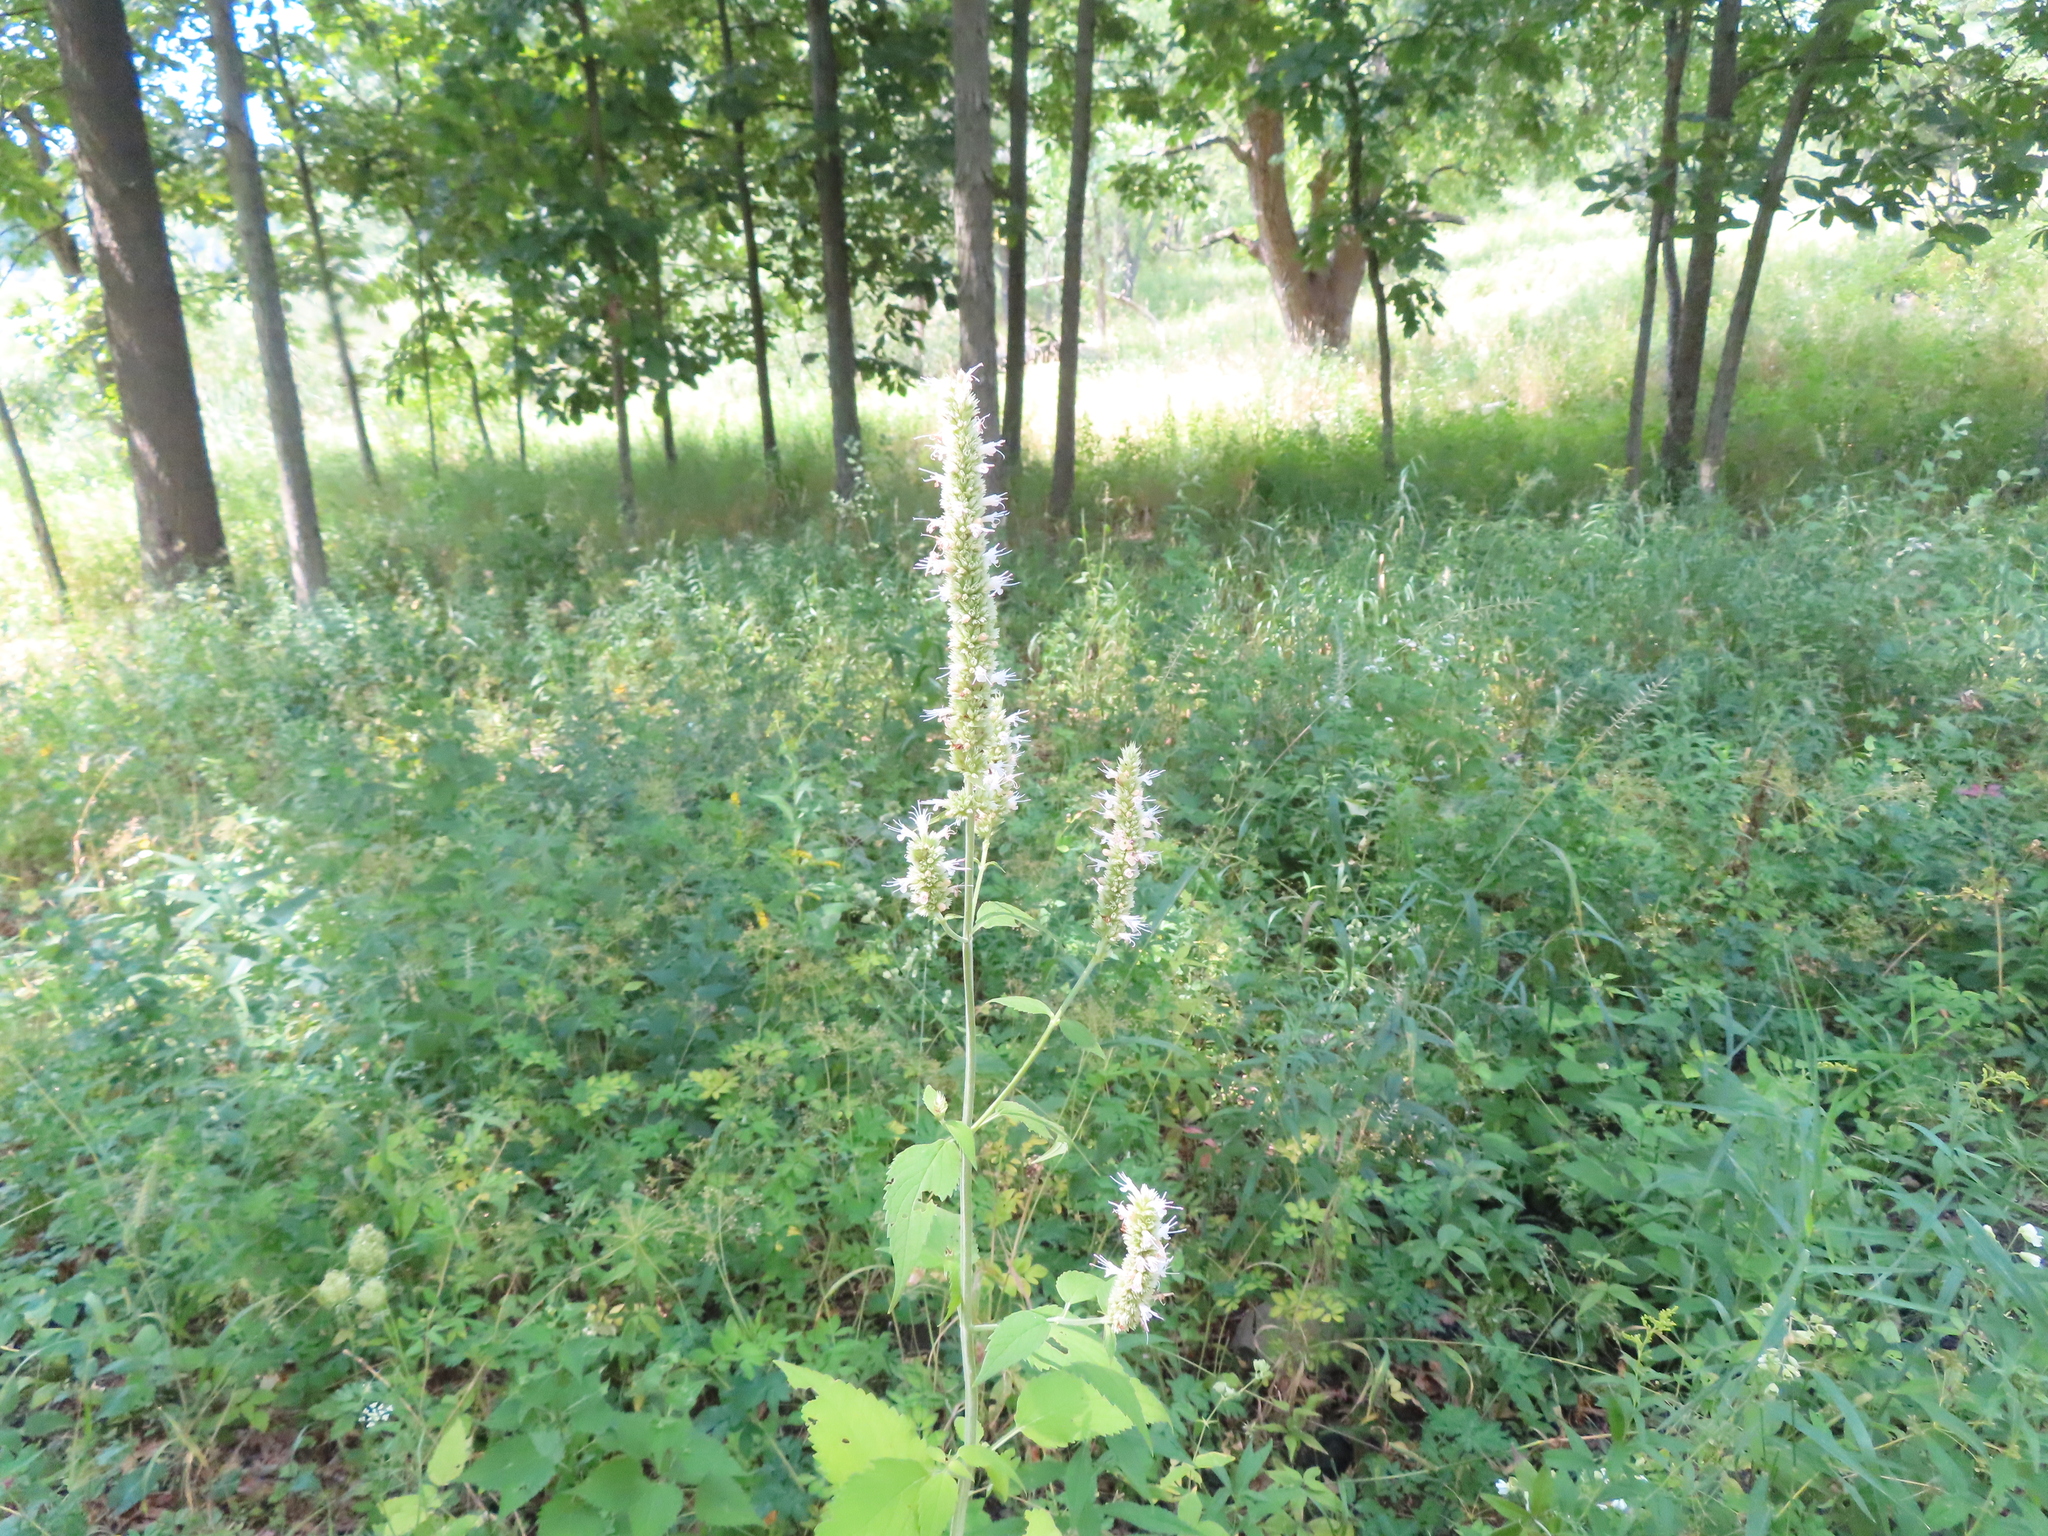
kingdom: Plantae
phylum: Tracheophyta
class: Magnoliopsida
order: Lamiales
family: Lamiaceae
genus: Agastache
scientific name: Agastache scrophulariifolia
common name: Figwort giant hyssop
